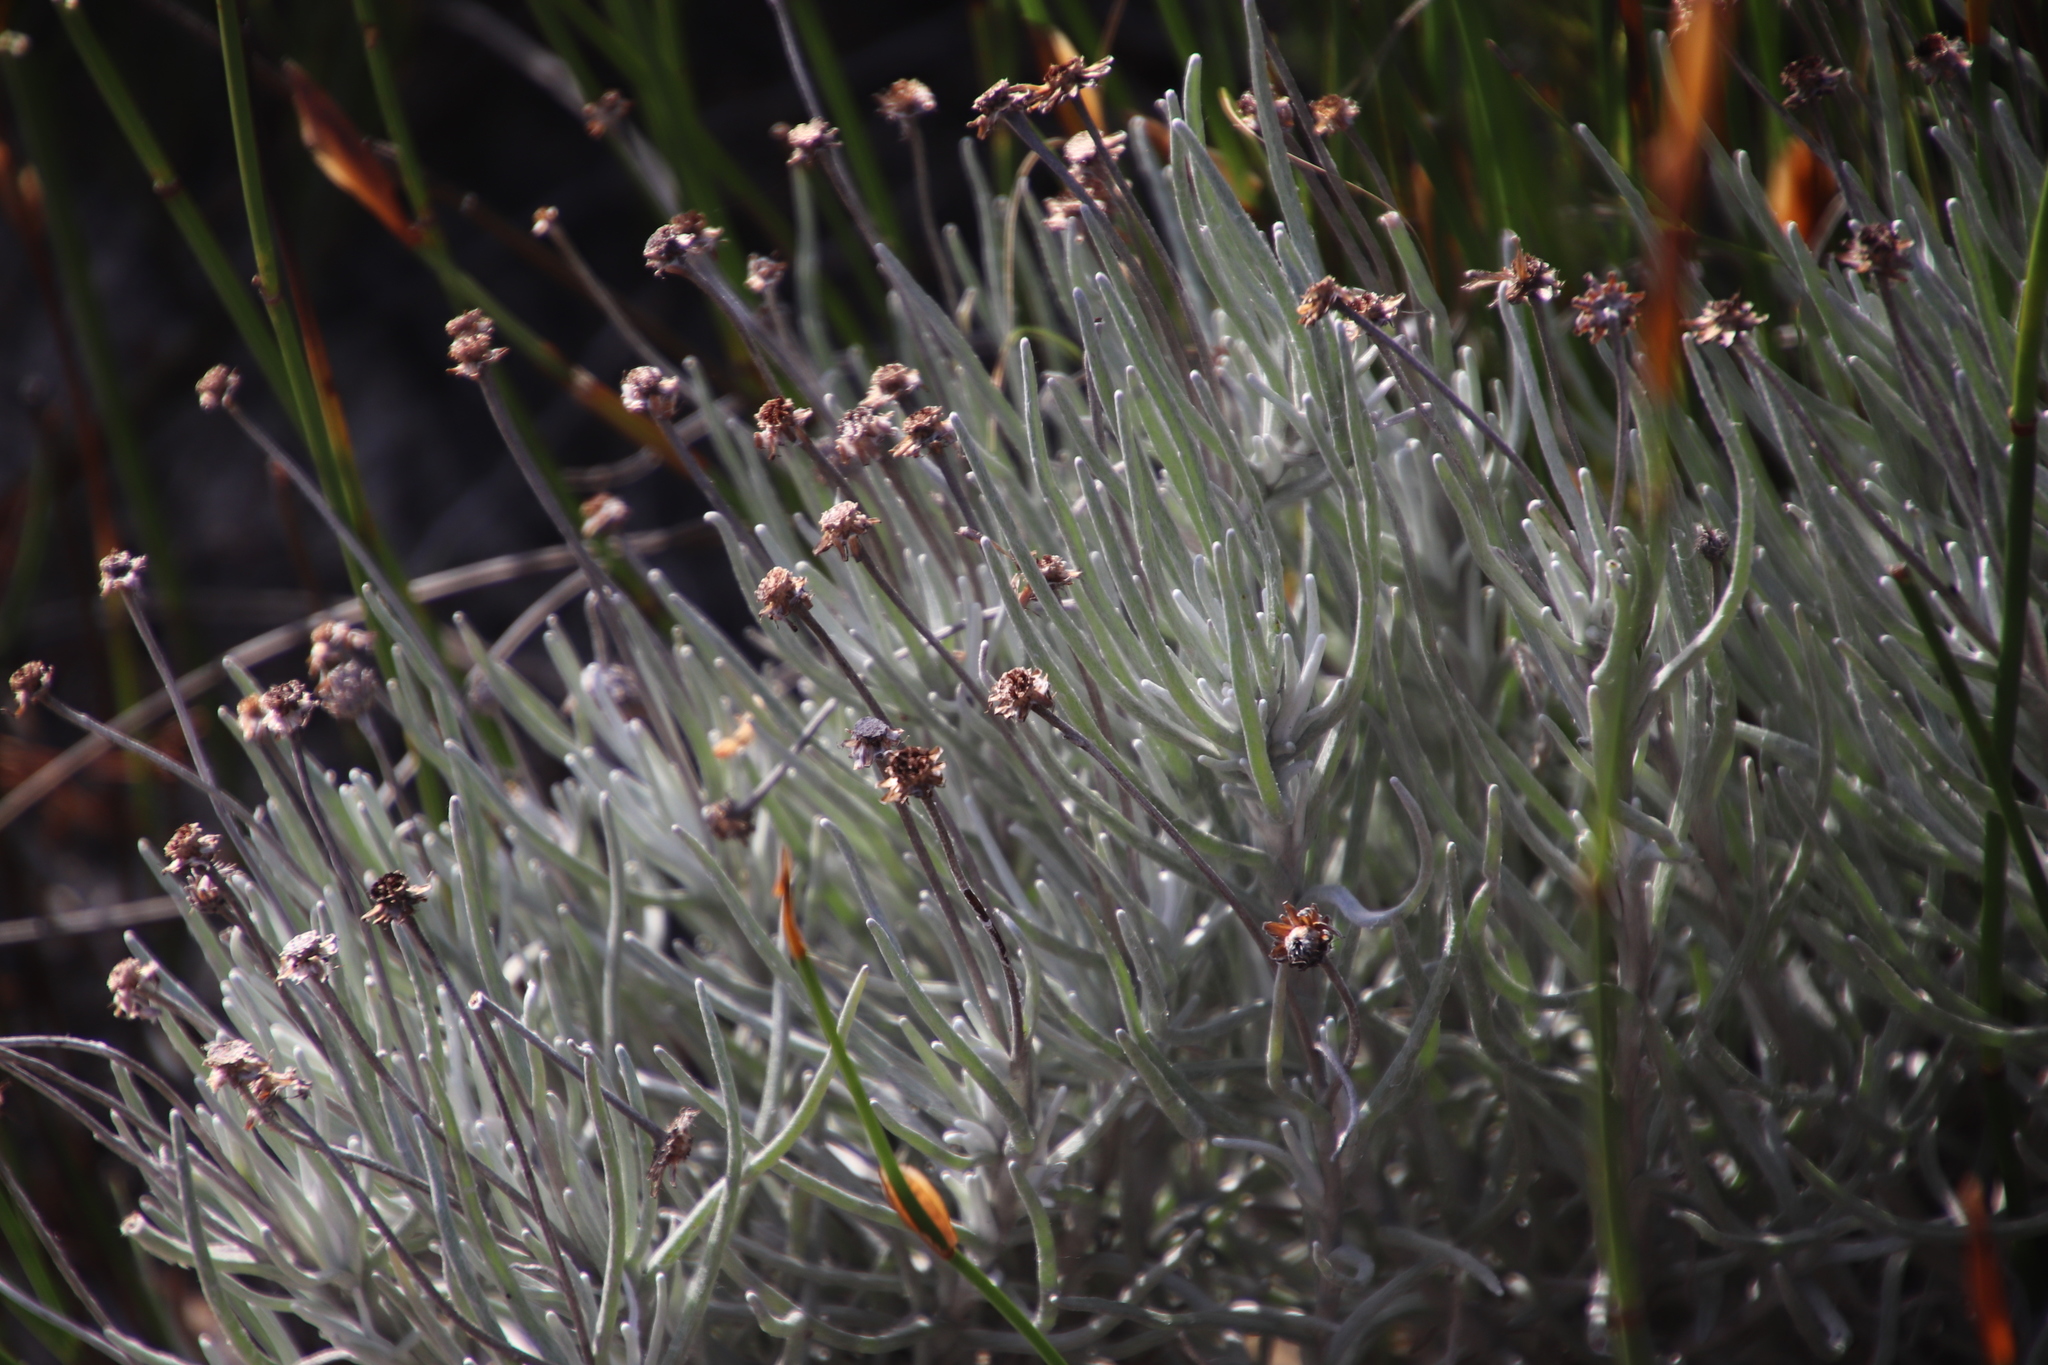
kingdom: Plantae
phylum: Tracheophyta
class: Magnoliopsida
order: Asterales
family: Asteraceae
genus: Syncarpha
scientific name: Syncarpha gnaphaloides
